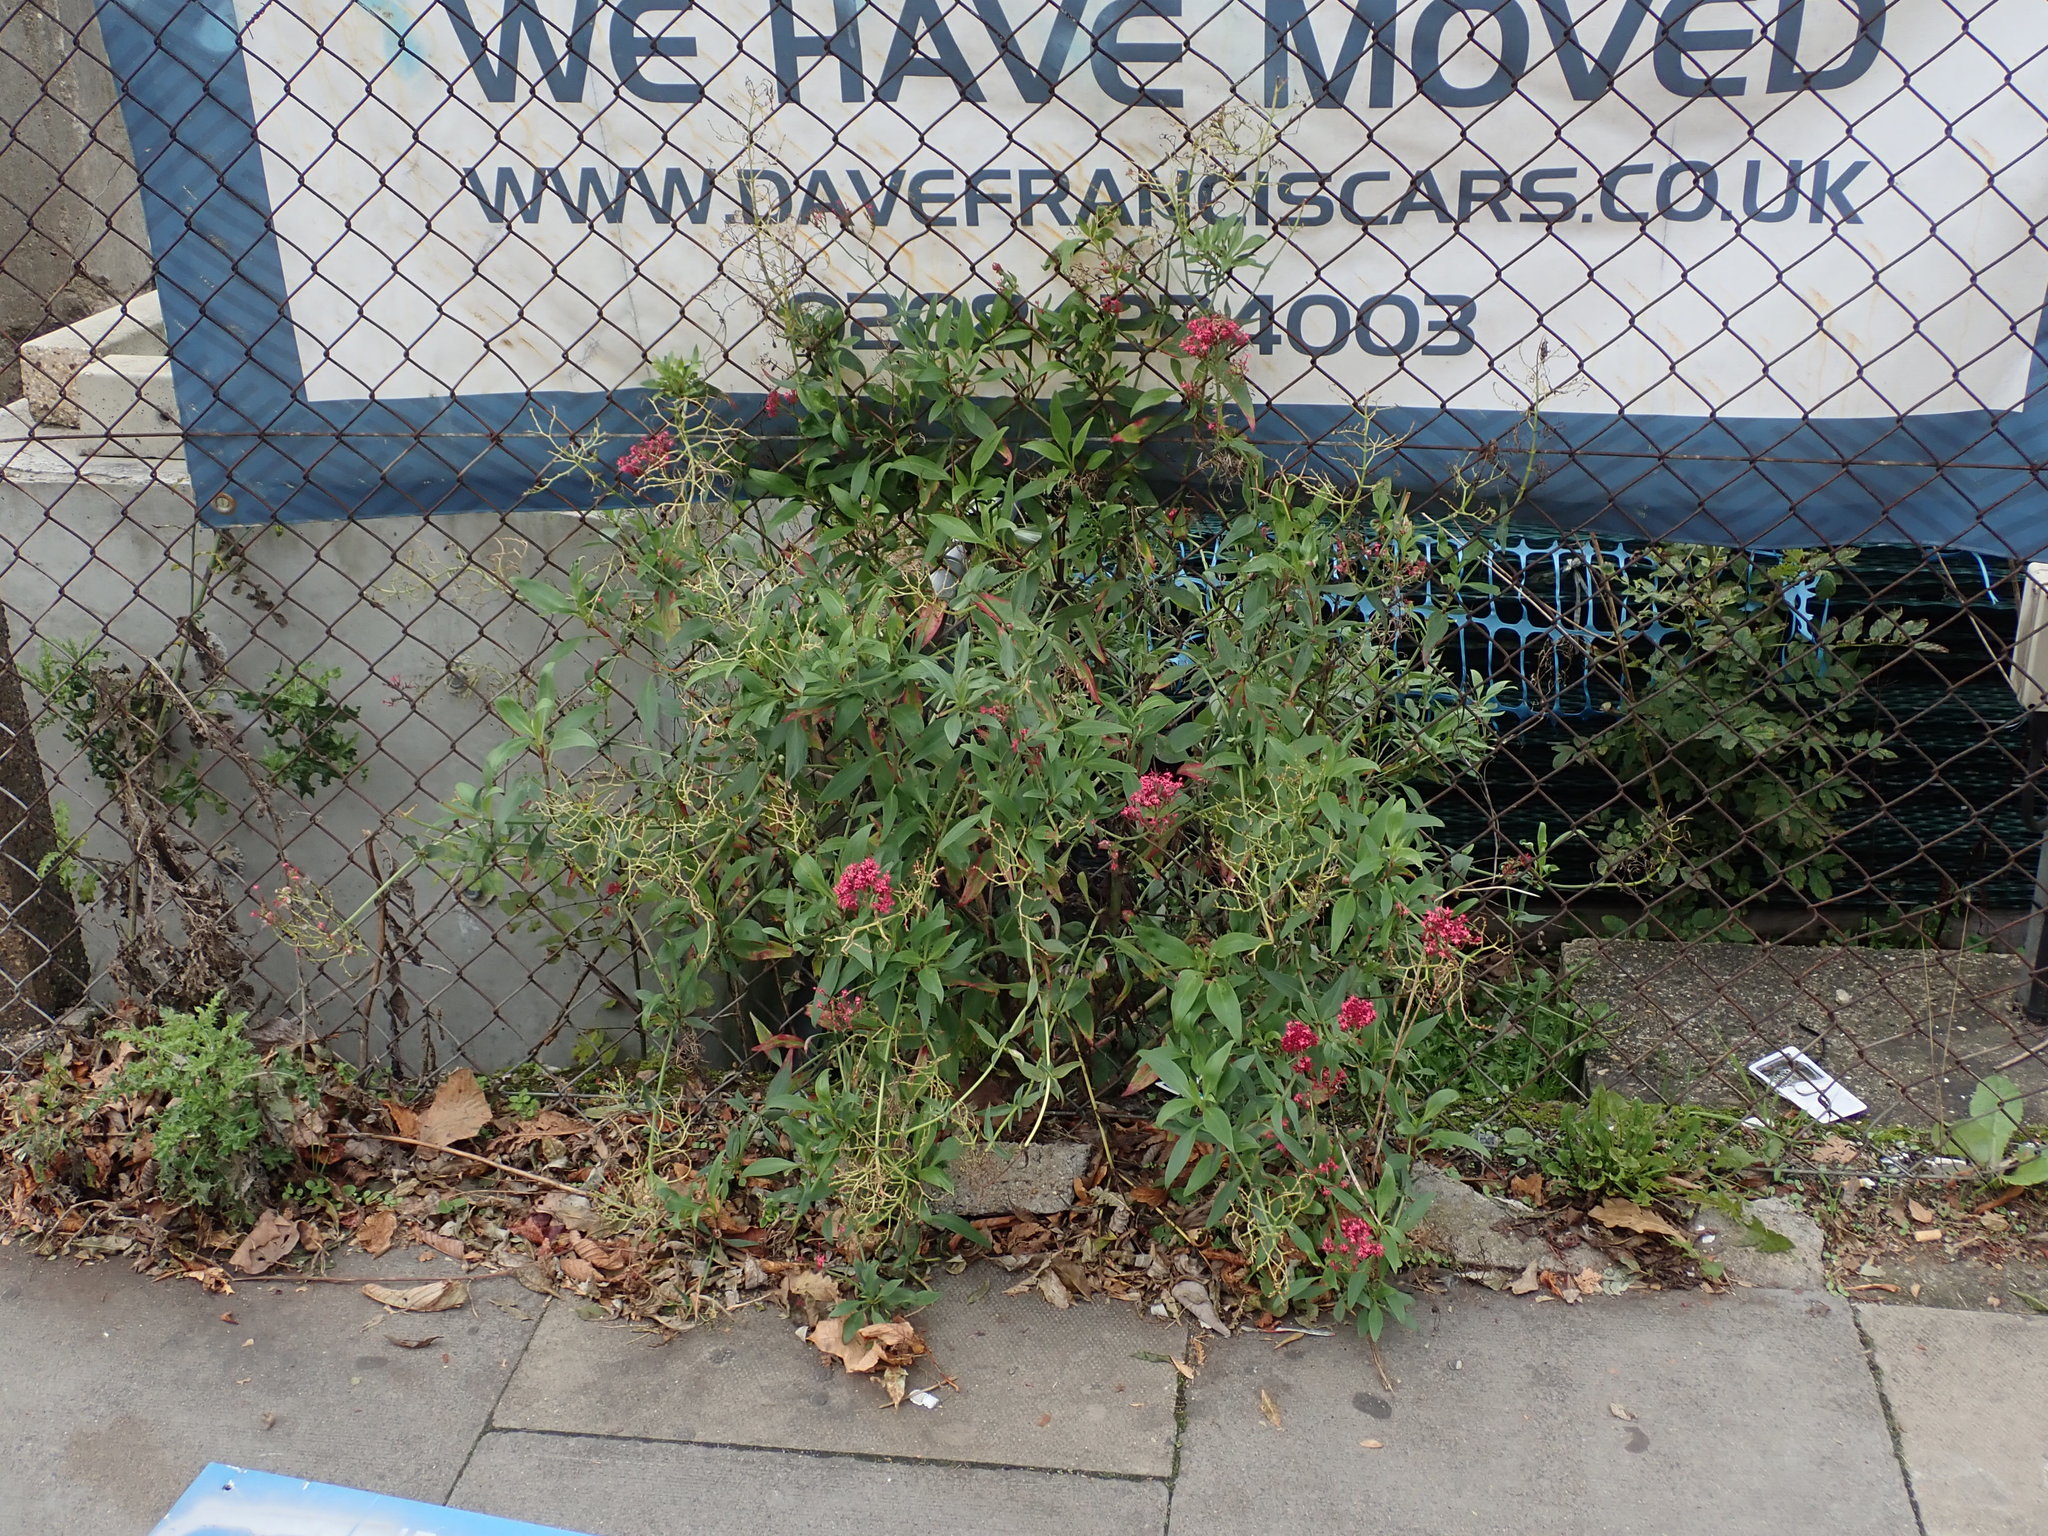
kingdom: Plantae
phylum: Tracheophyta
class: Magnoliopsida
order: Dipsacales
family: Caprifoliaceae
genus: Centranthus
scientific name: Centranthus ruber
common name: Red valerian
